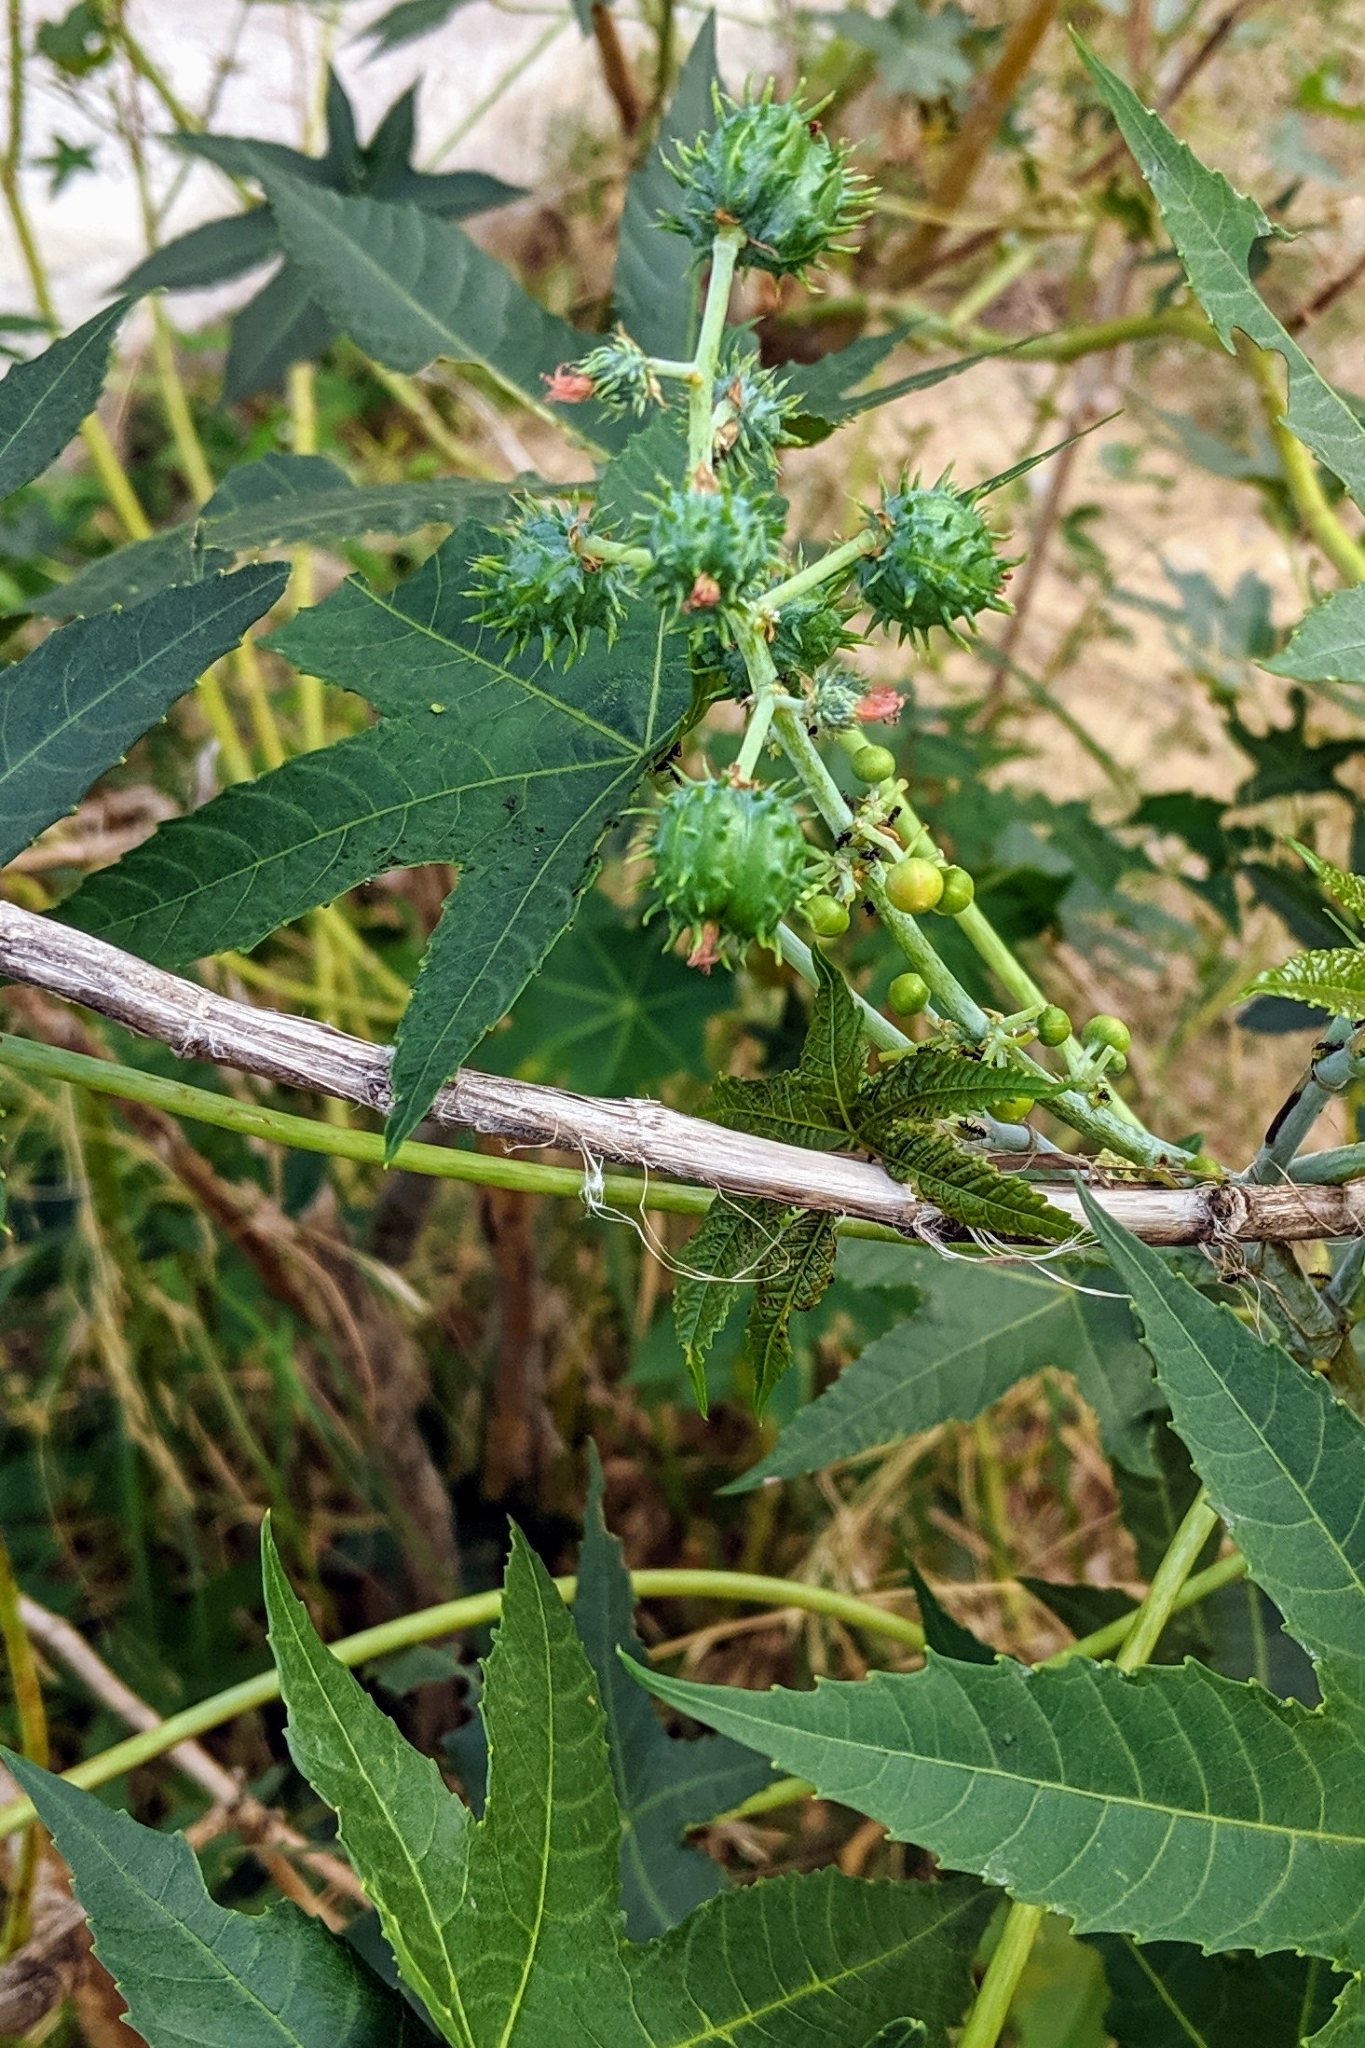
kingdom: Plantae
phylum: Tracheophyta
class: Magnoliopsida
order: Malpighiales
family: Euphorbiaceae
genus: Ricinus
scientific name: Ricinus communis
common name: Castor-oil-plant
